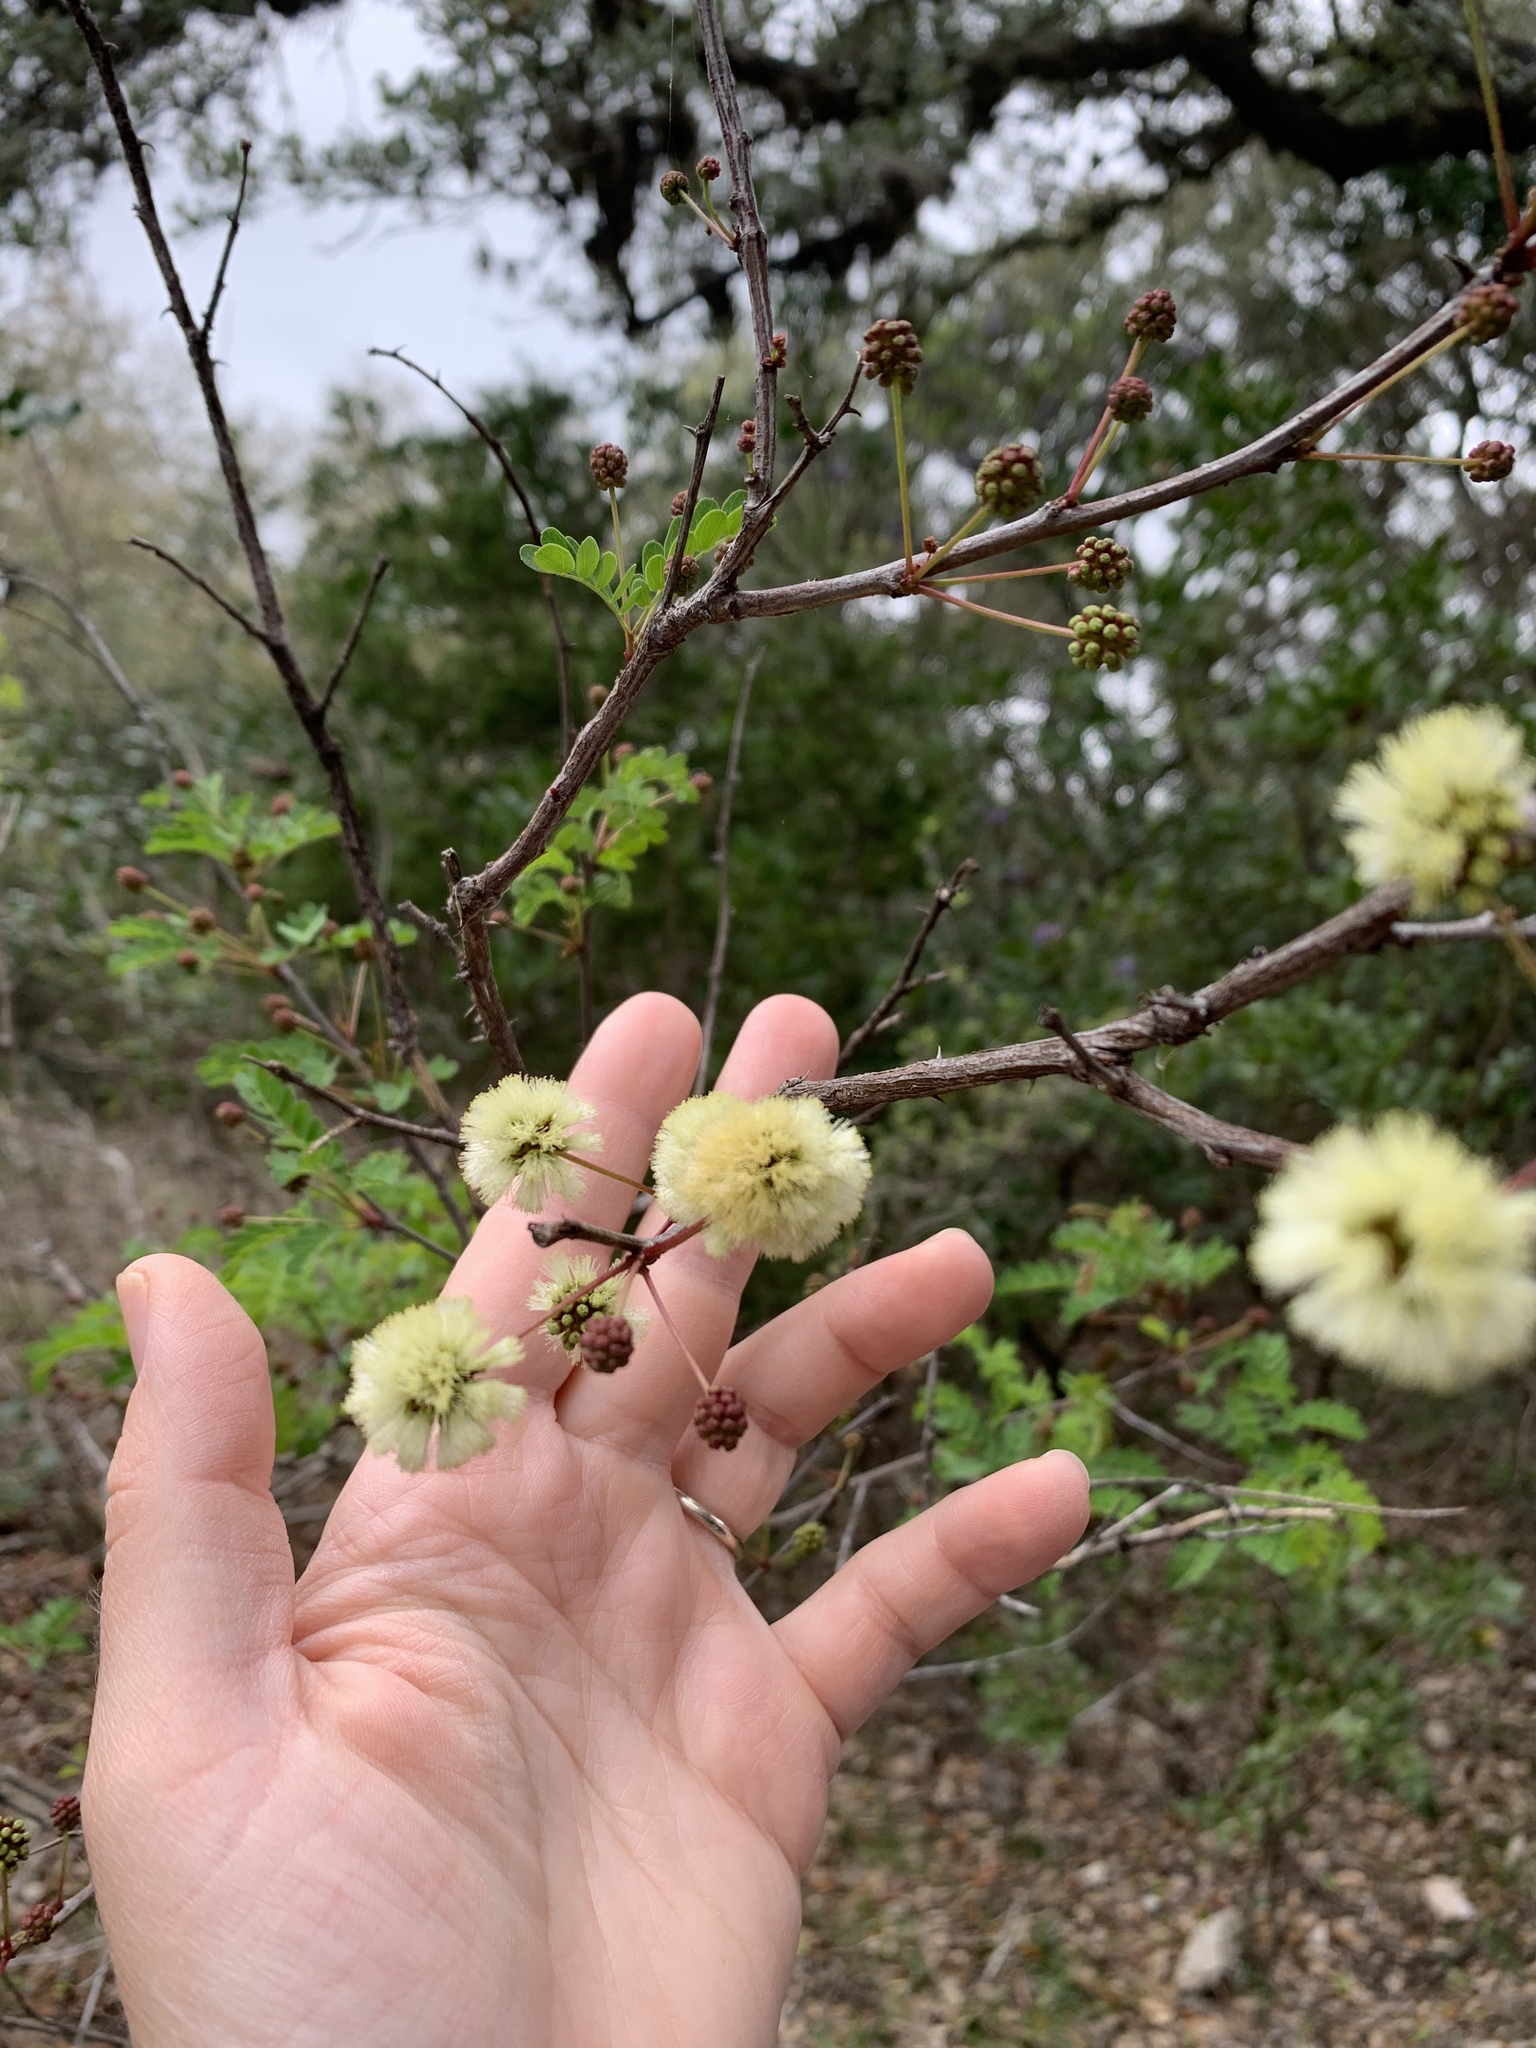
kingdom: Plantae
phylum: Tracheophyta
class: Magnoliopsida
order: Fabales
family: Fabaceae
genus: Senegalia
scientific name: Senegalia roemeriana
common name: Roemer's acacia
